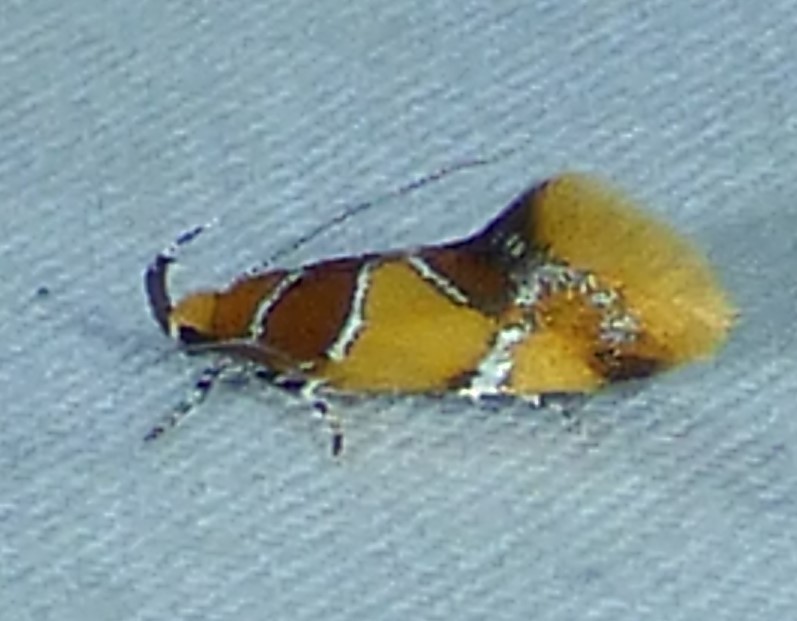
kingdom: Animalia
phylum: Arthropoda
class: Insecta
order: Lepidoptera
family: Oecophoridae
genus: Callima
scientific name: Callima argenticinctella
